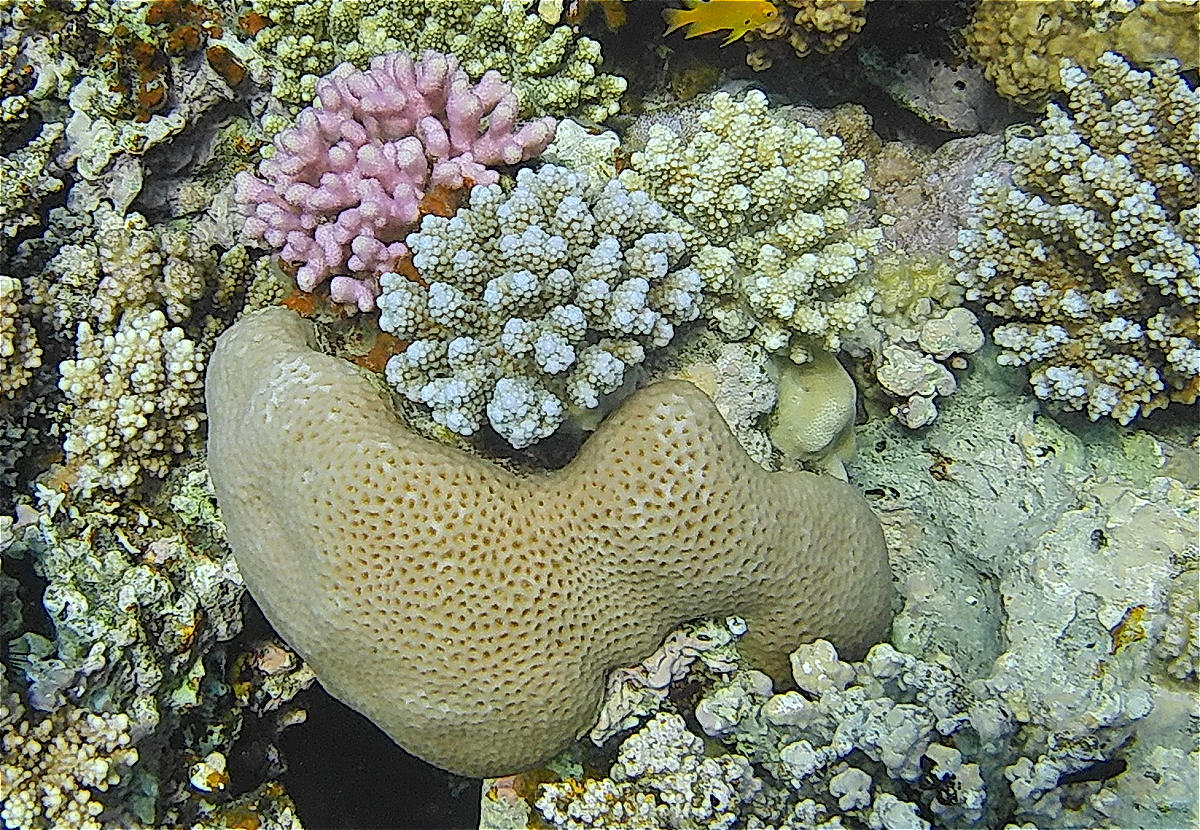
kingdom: Animalia
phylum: Cnidaria
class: Anthozoa
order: Scleractinia
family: Merulinidae
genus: Goniastrea
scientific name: Goniastrea pectinata
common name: Lesser star coral
